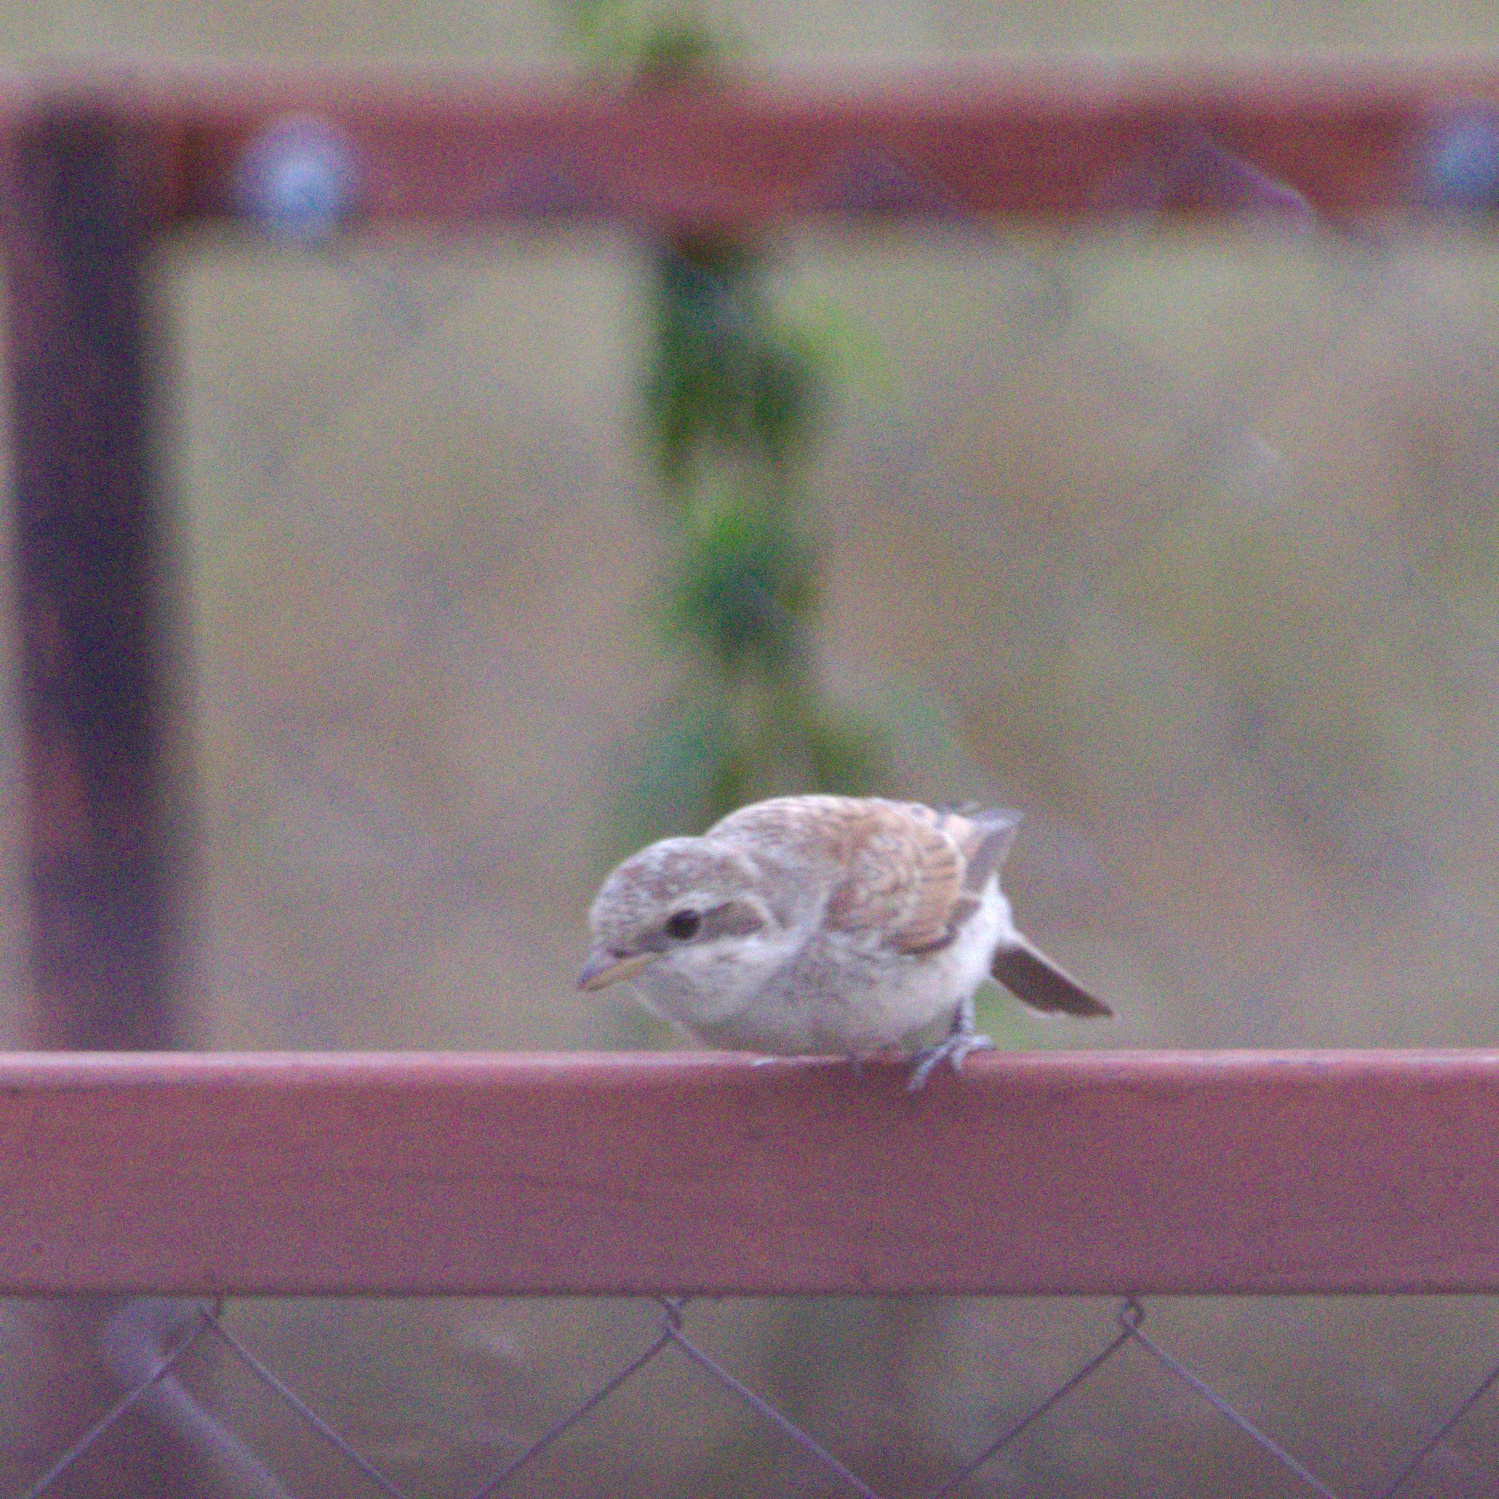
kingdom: Animalia
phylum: Chordata
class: Aves
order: Passeriformes
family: Laniidae
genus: Lanius
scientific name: Lanius collurio
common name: Red-backed shrike
